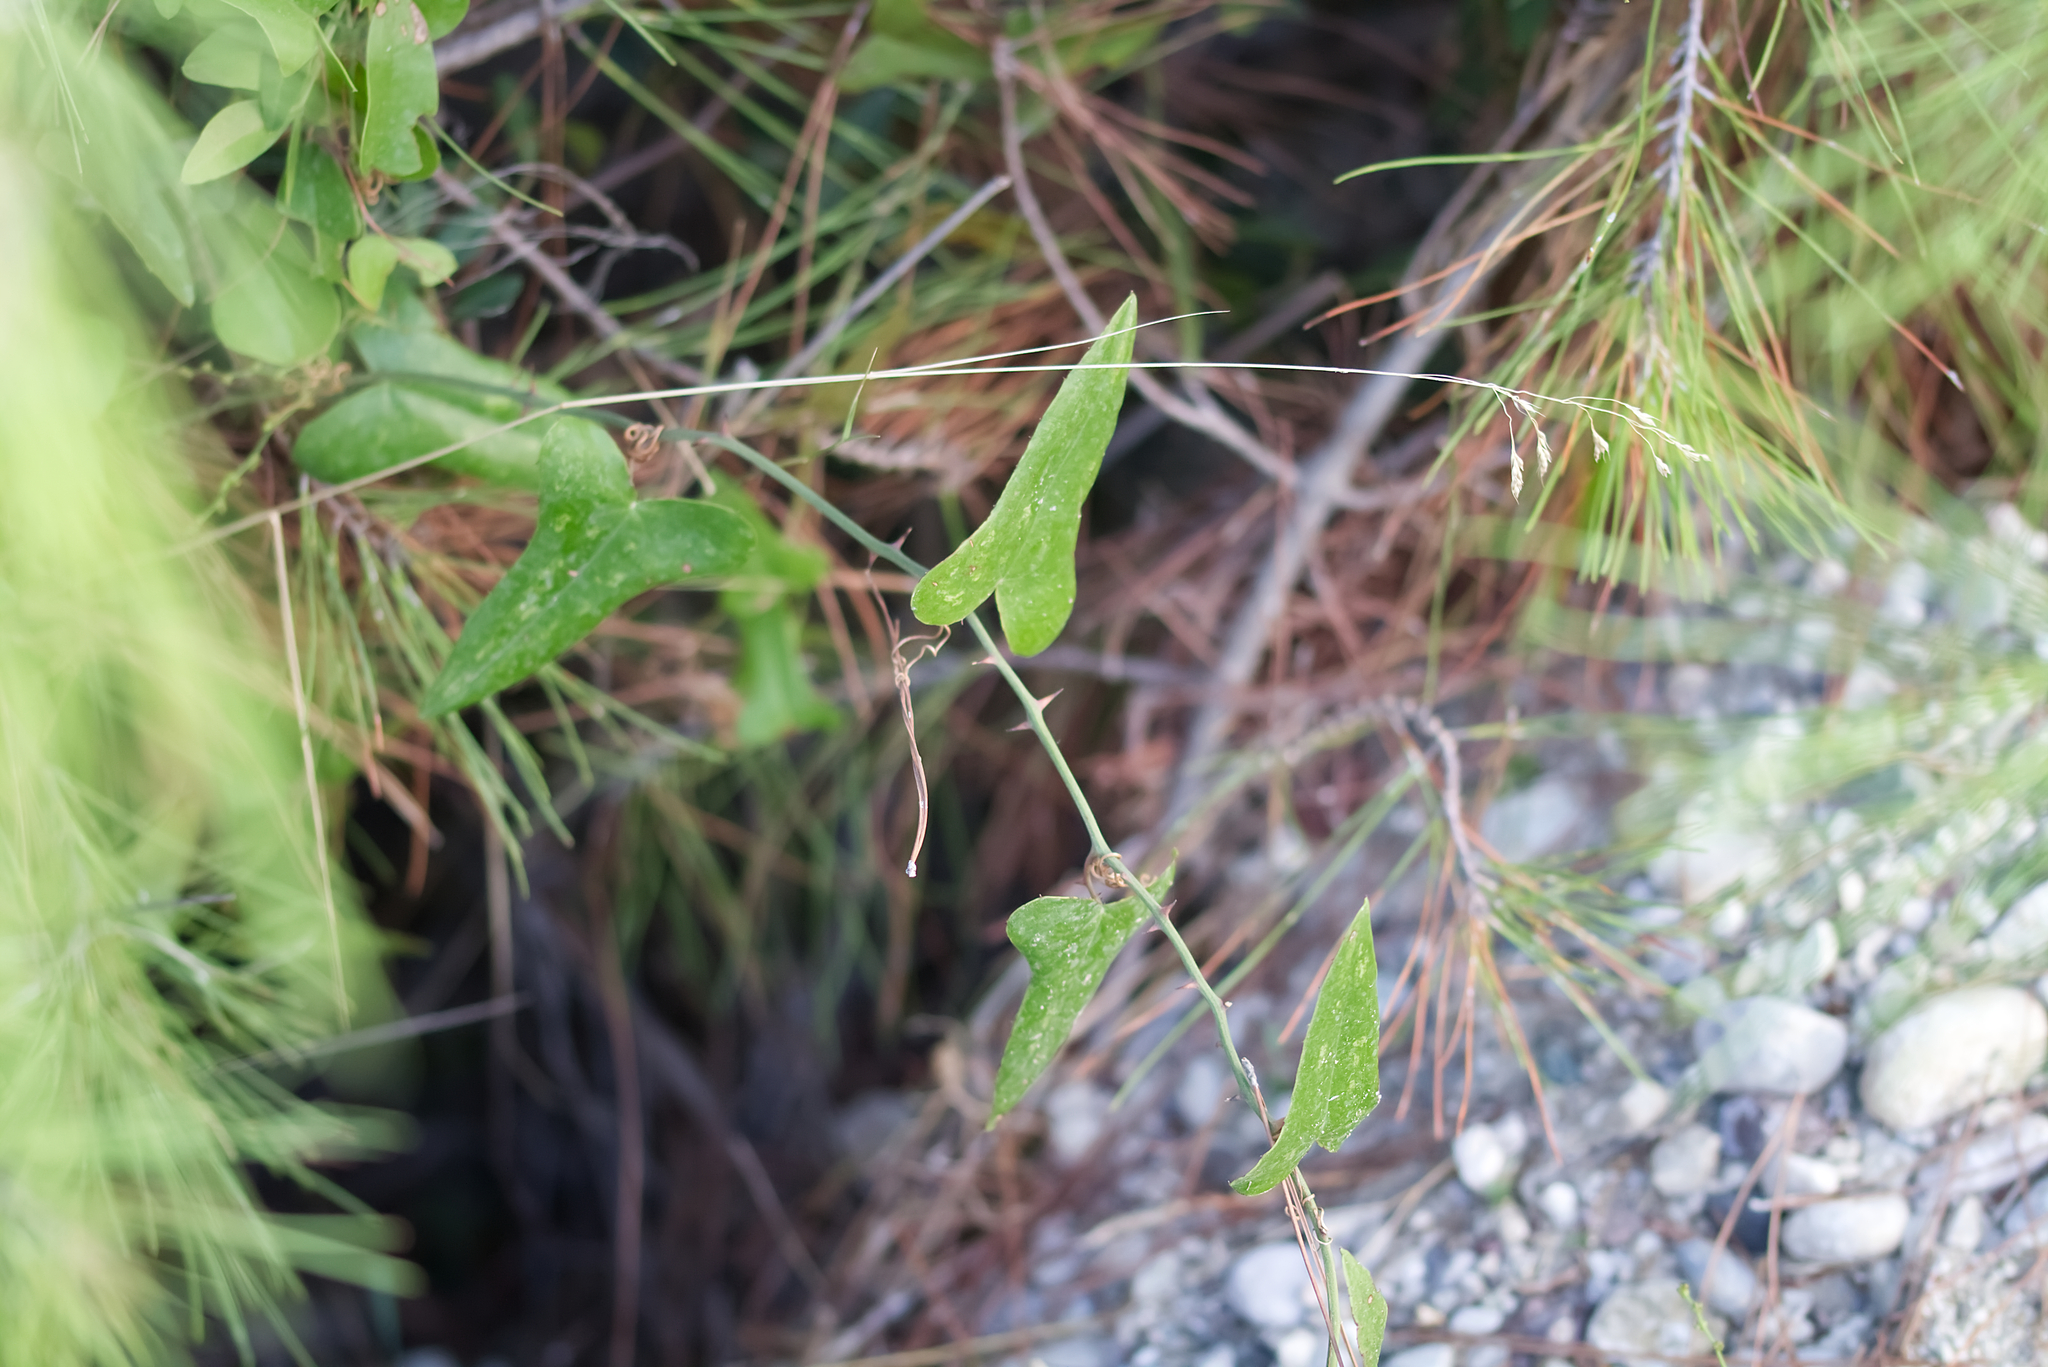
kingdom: Plantae
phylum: Tracheophyta
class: Liliopsida
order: Liliales
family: Smilacaceae
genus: Smilax
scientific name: Smilax aspera
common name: Common smilax
